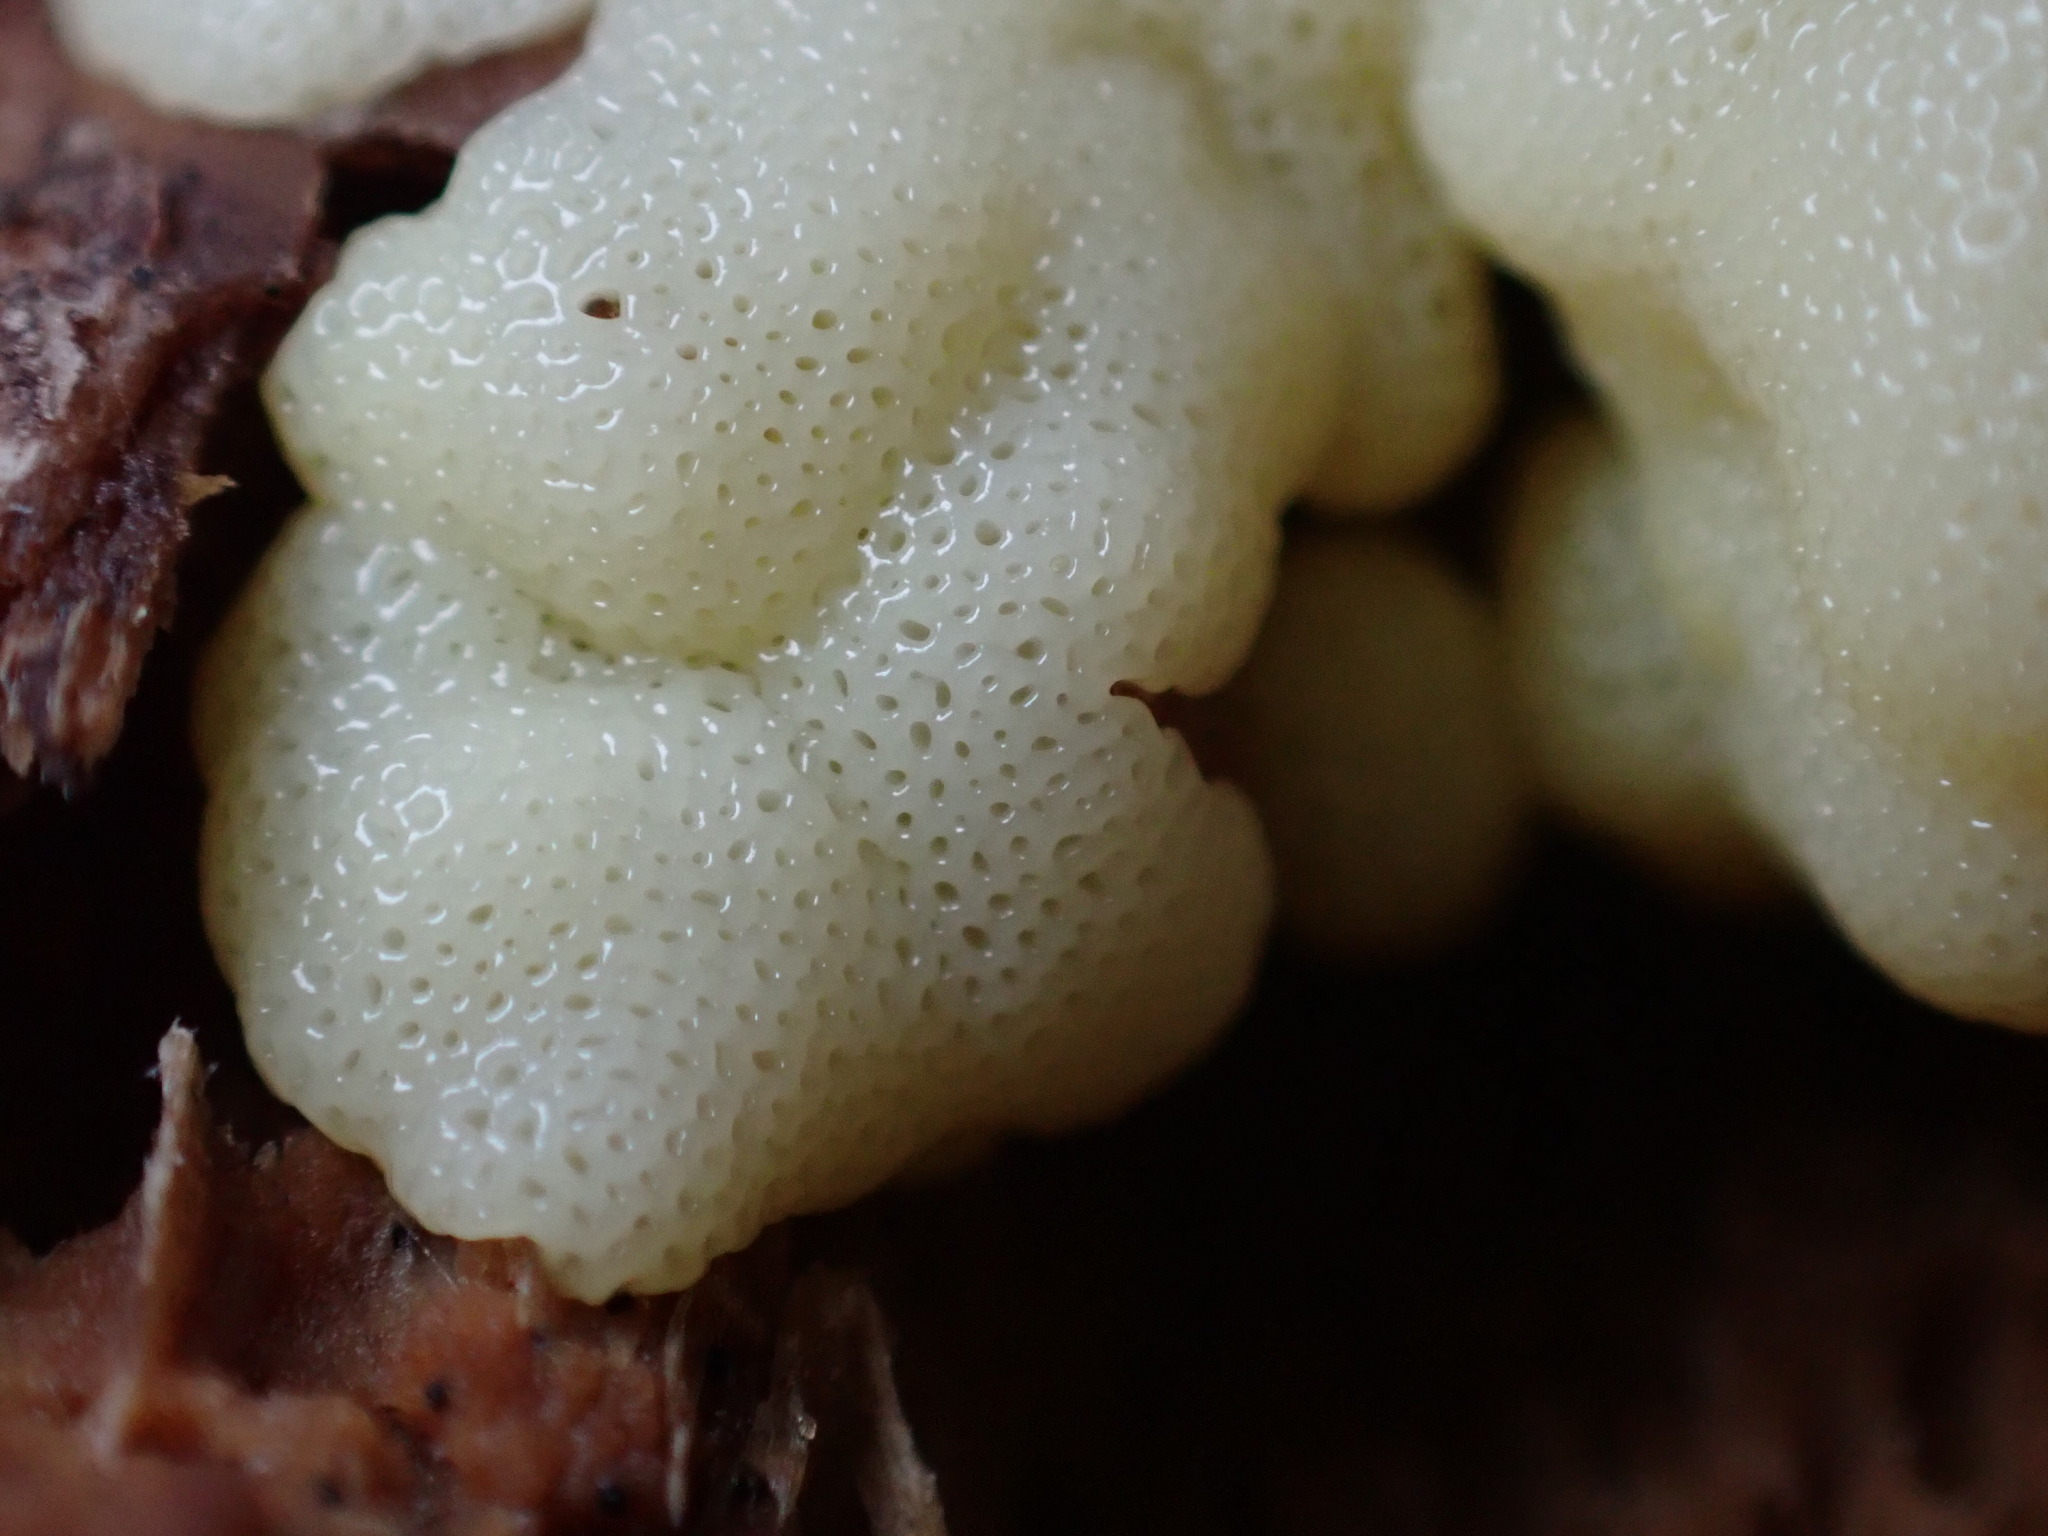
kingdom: Protozoa
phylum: Mycetozoa
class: Protosteliomycetes
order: Ceratiomyxales
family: Ceratiomyxaceae
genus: Ceratiomyxa
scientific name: Ceratiomyxa fruticulosa
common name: Honeycomb coral slime mold
